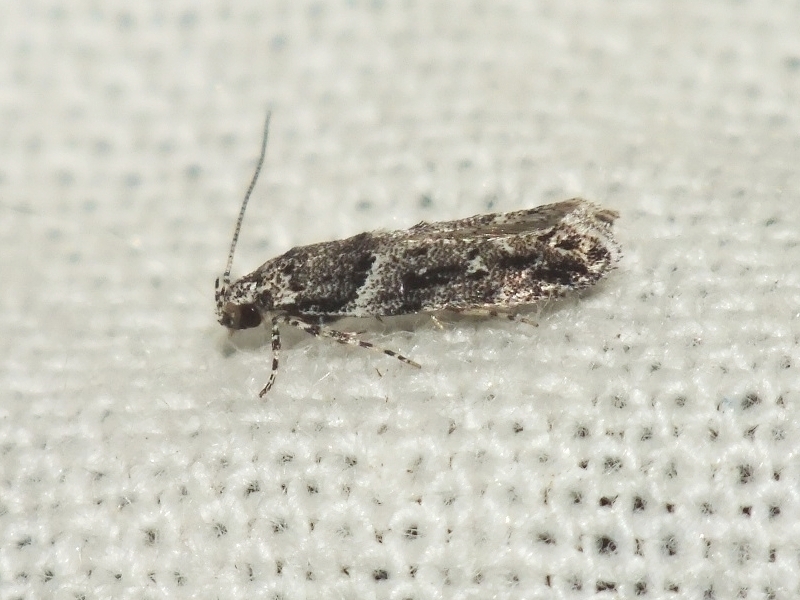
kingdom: Animalia
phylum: Arthropoda
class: Insecta
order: Lepidoptera
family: Gelechiidae
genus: Recurvaria
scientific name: Recurvaria nanella
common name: Gelechiid moth
